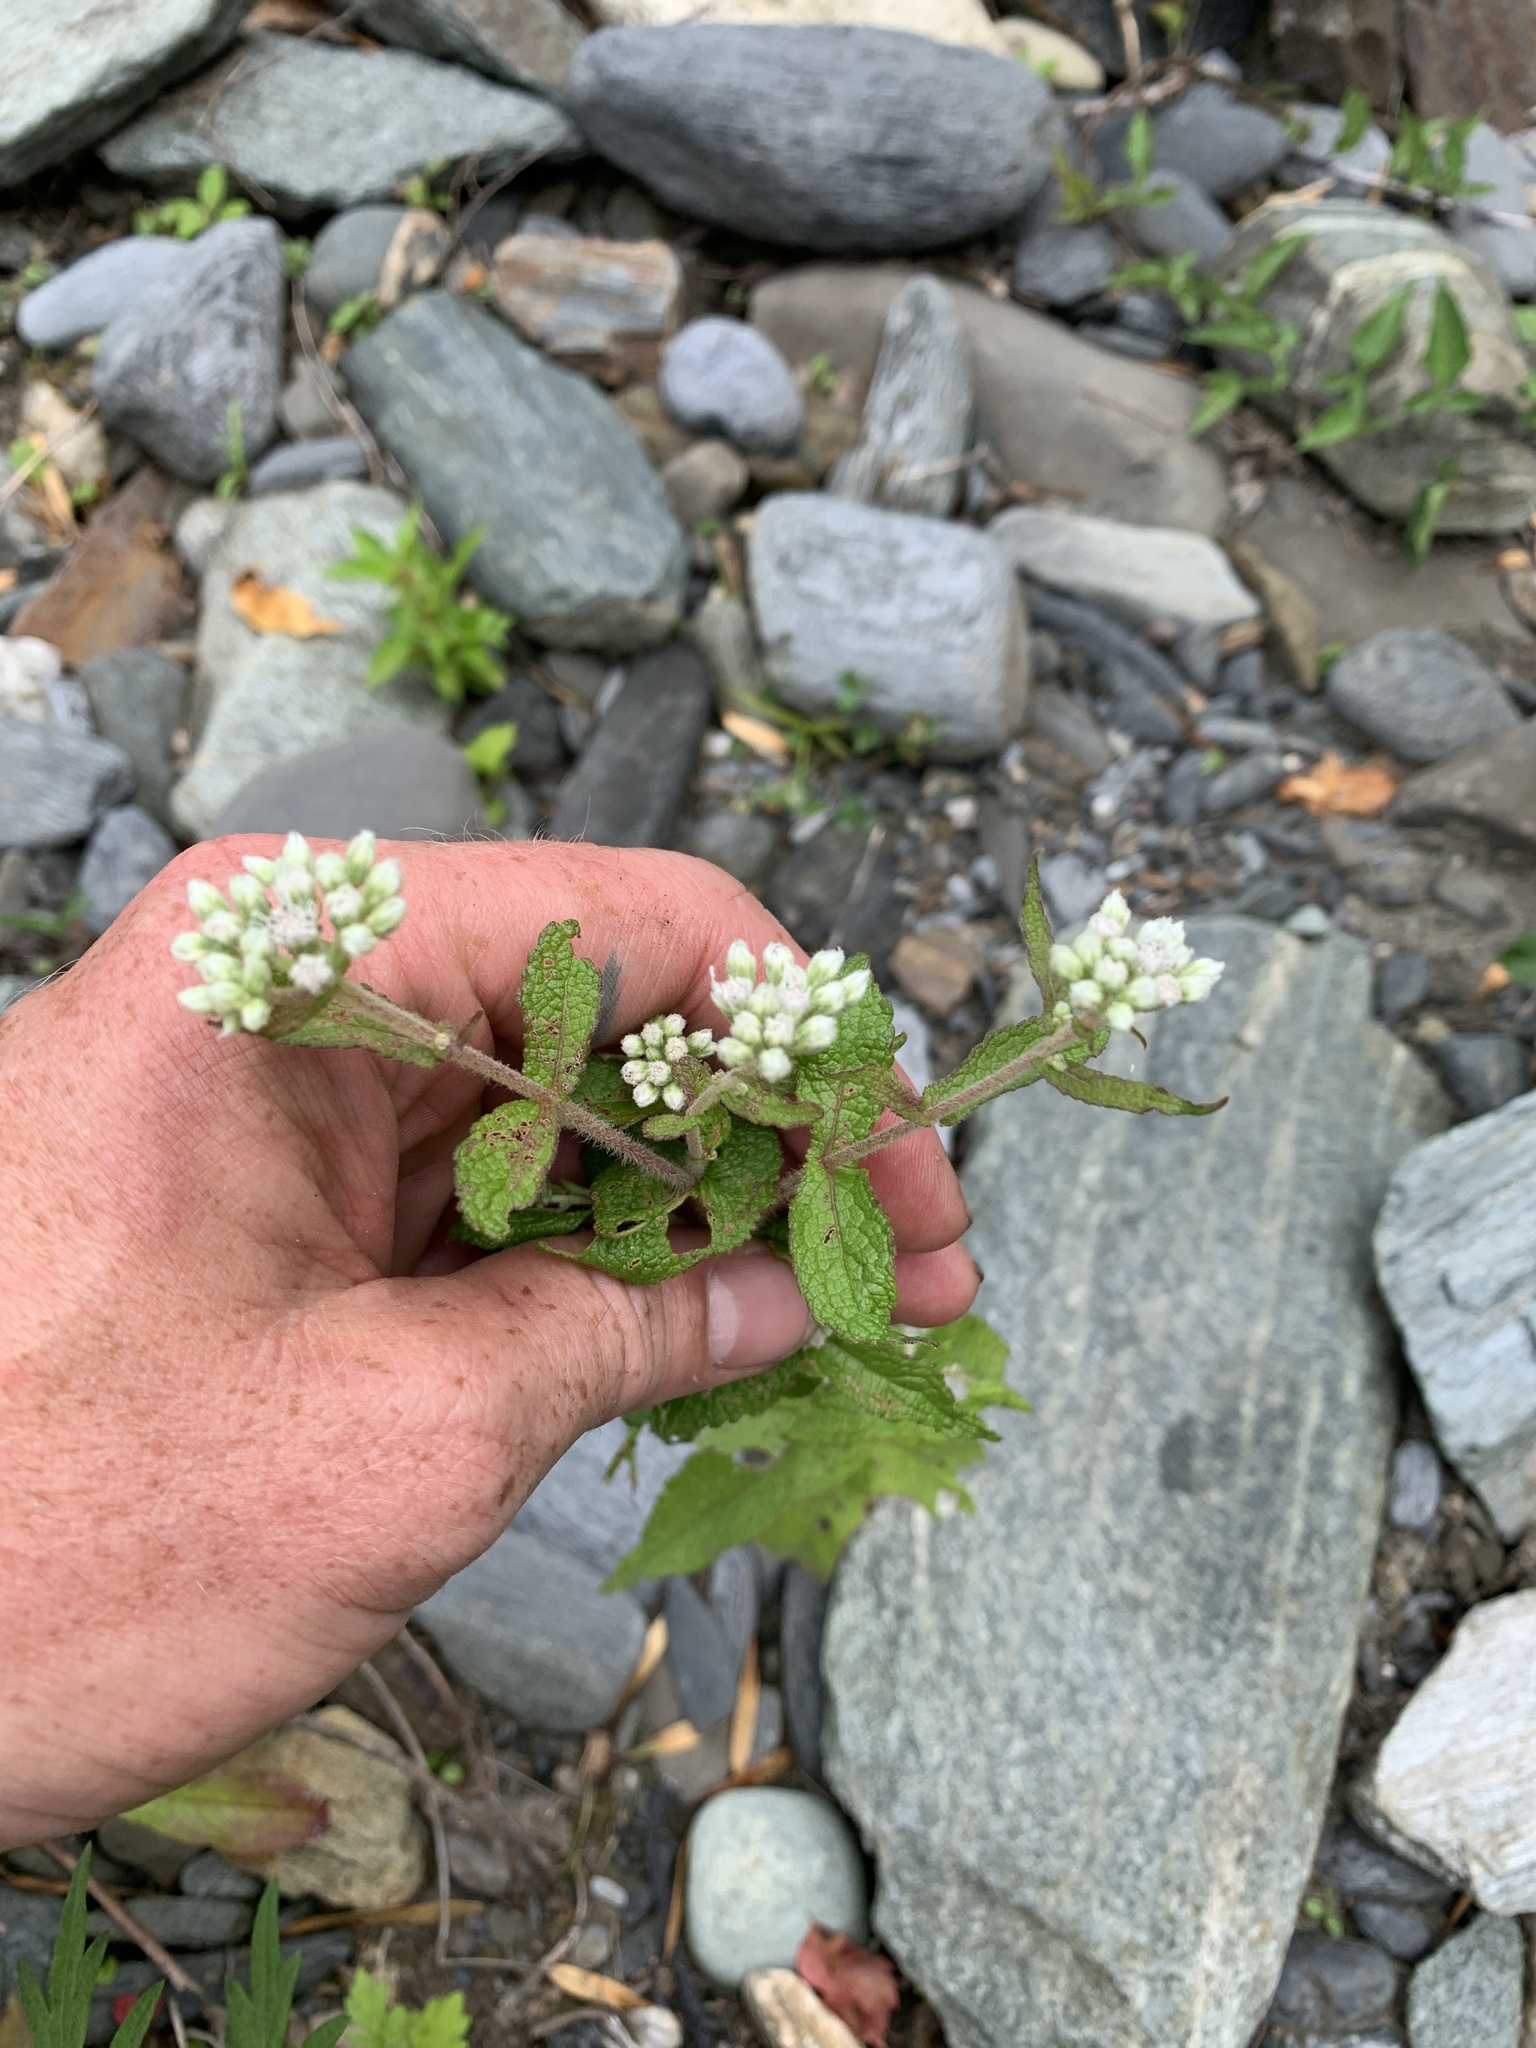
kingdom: Plantae
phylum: Tracheophyta
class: Magnoliopsida
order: Asterales
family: Asteraceae
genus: Eupatorium
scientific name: Eupatorium perfoliatum
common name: Boneset
